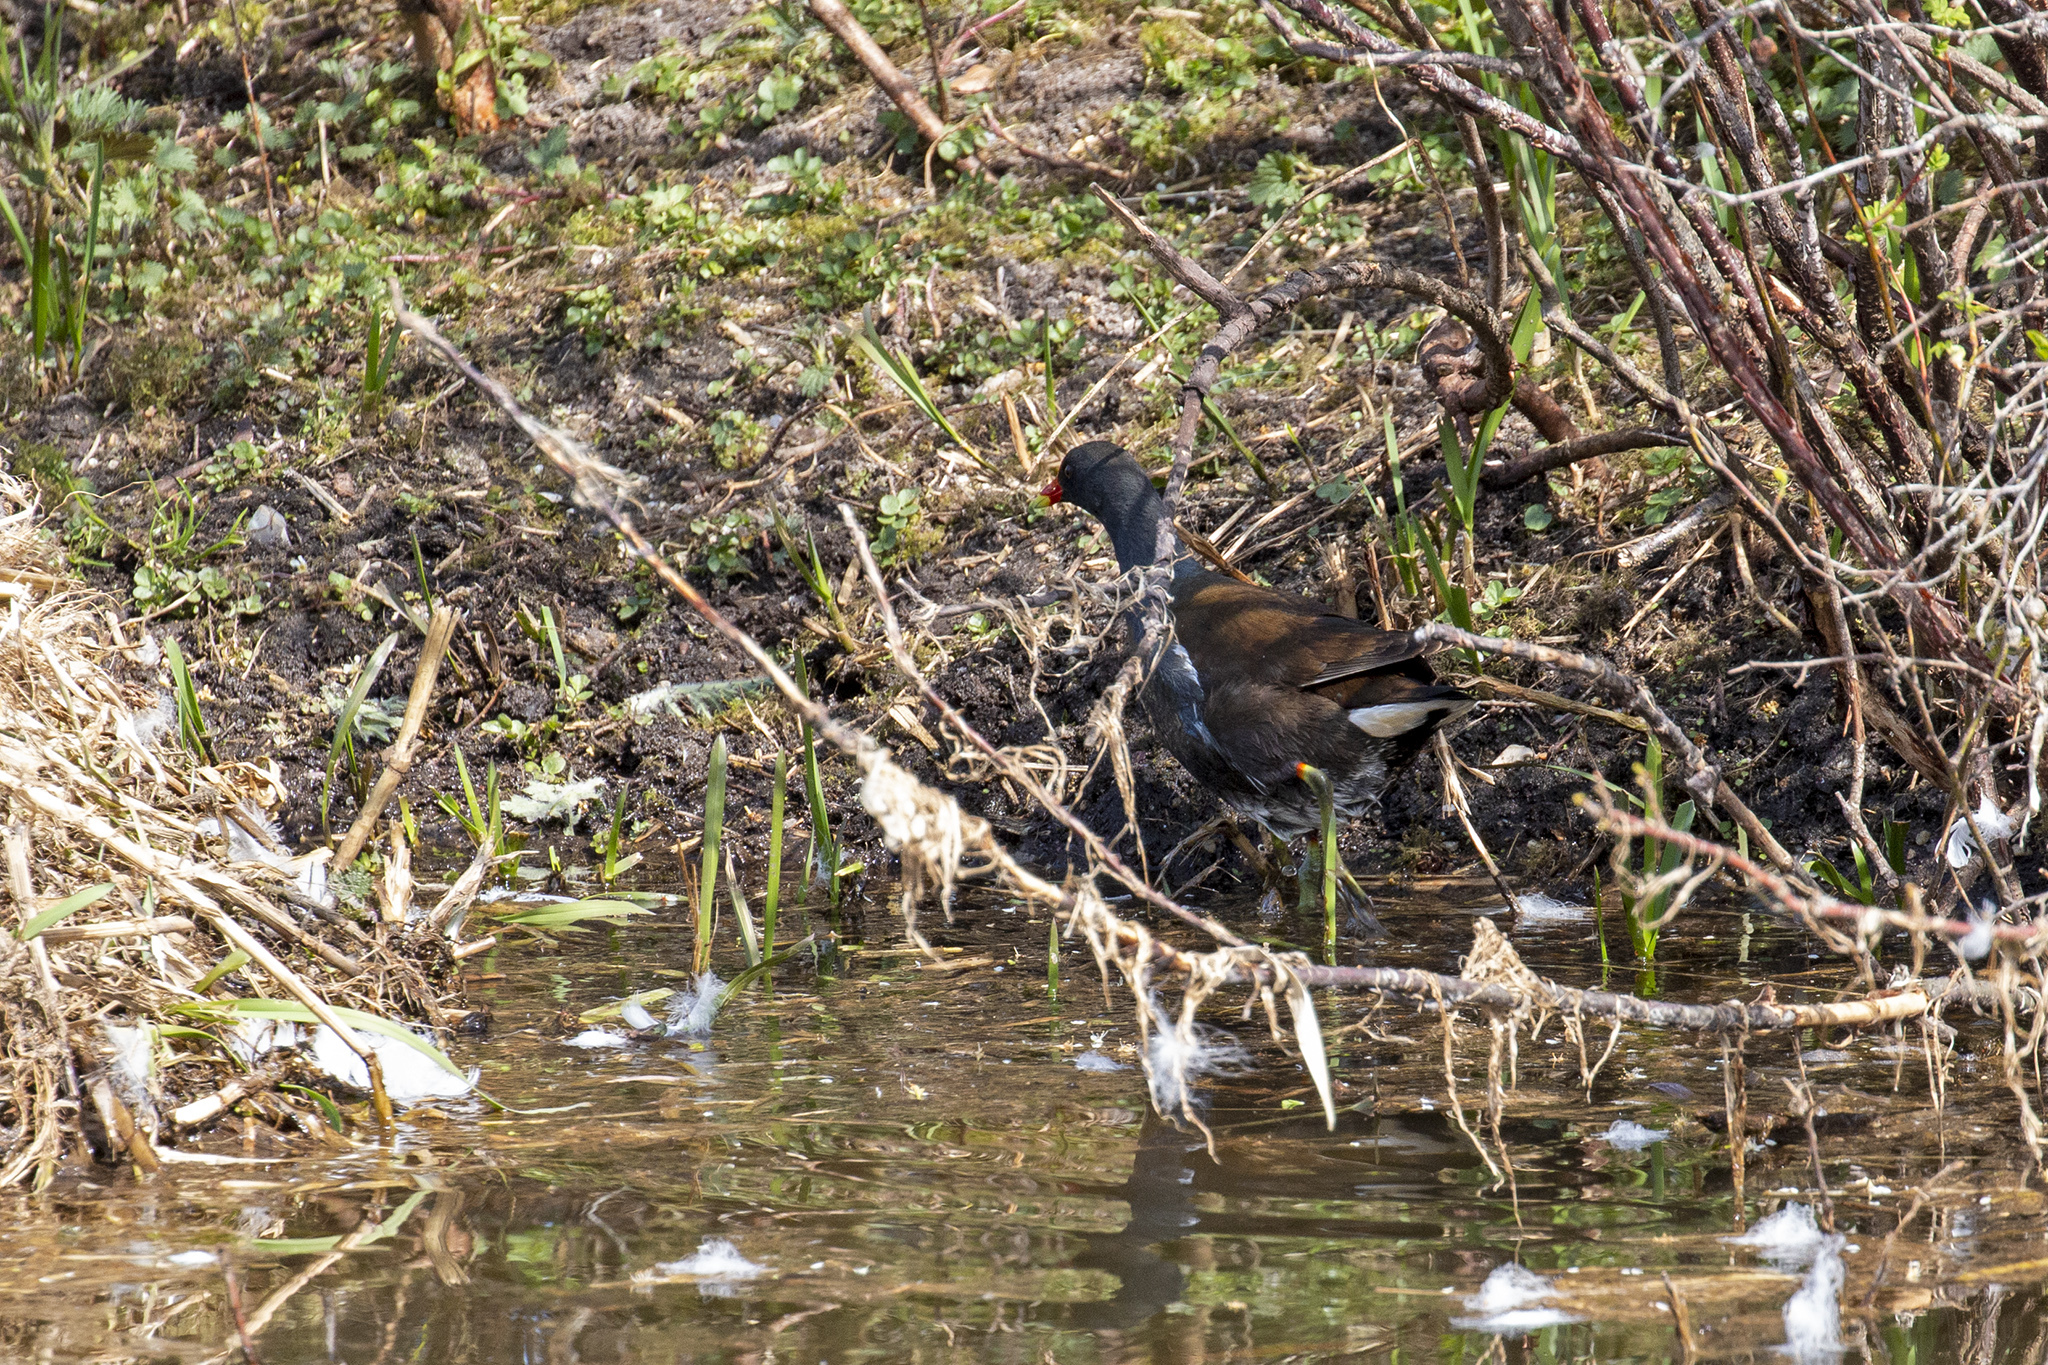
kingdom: Animalia
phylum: Chordata
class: Aves
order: Gruiformes
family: Rallidae
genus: Gallinula
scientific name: Gallinula chloropus
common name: Common moorhen
